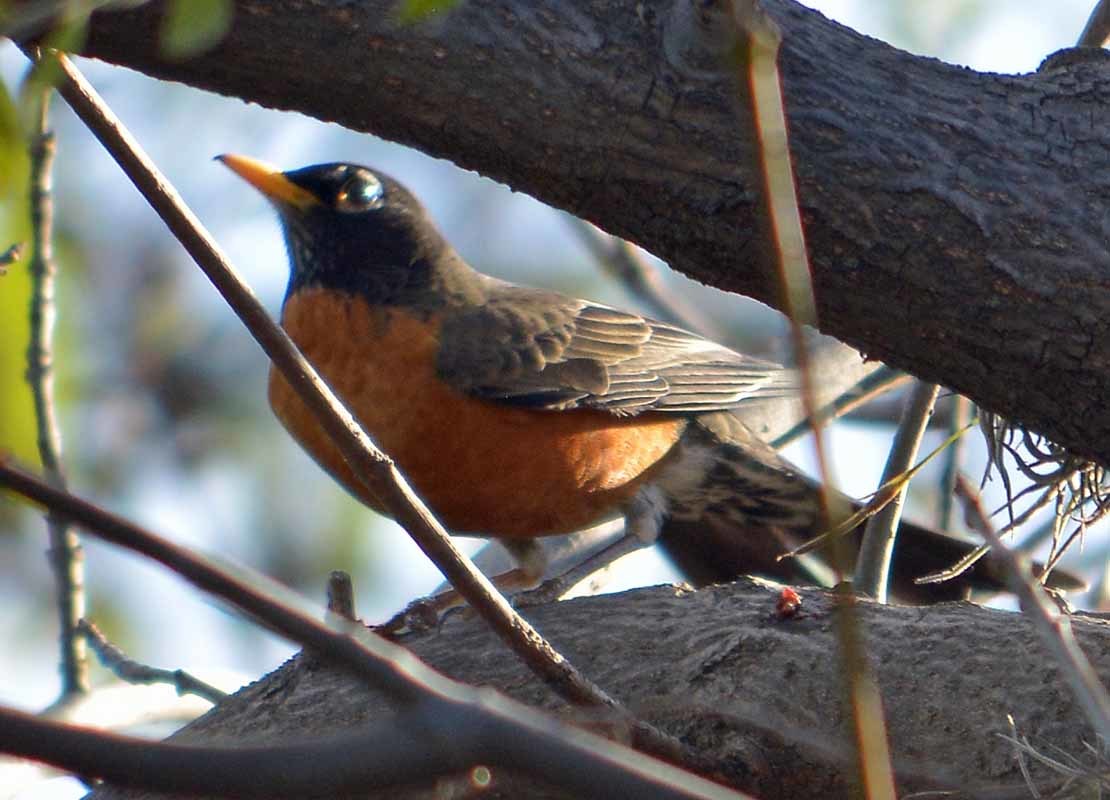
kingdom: Animalia
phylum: Chordata
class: Aves
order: Passeriformes
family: Turdidae
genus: Turdus
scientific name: Turdus migratorius
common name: American robin
